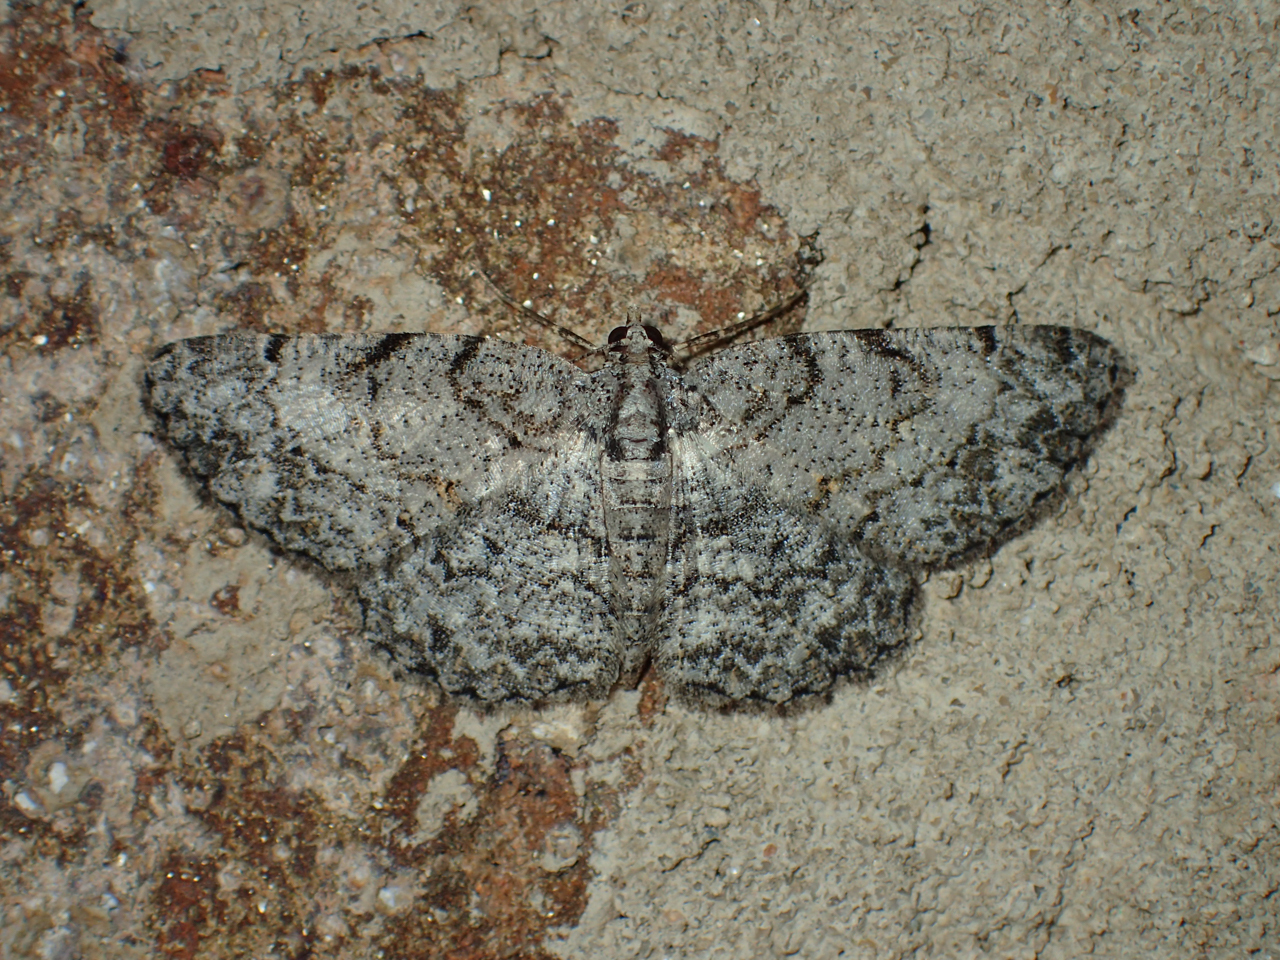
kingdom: Animalia
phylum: Arthropoda
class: Insecta
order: Lepidoptera
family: Geometridae
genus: Protoboarmia
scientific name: Protoboarmia porcelaria
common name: Porcelain gray
